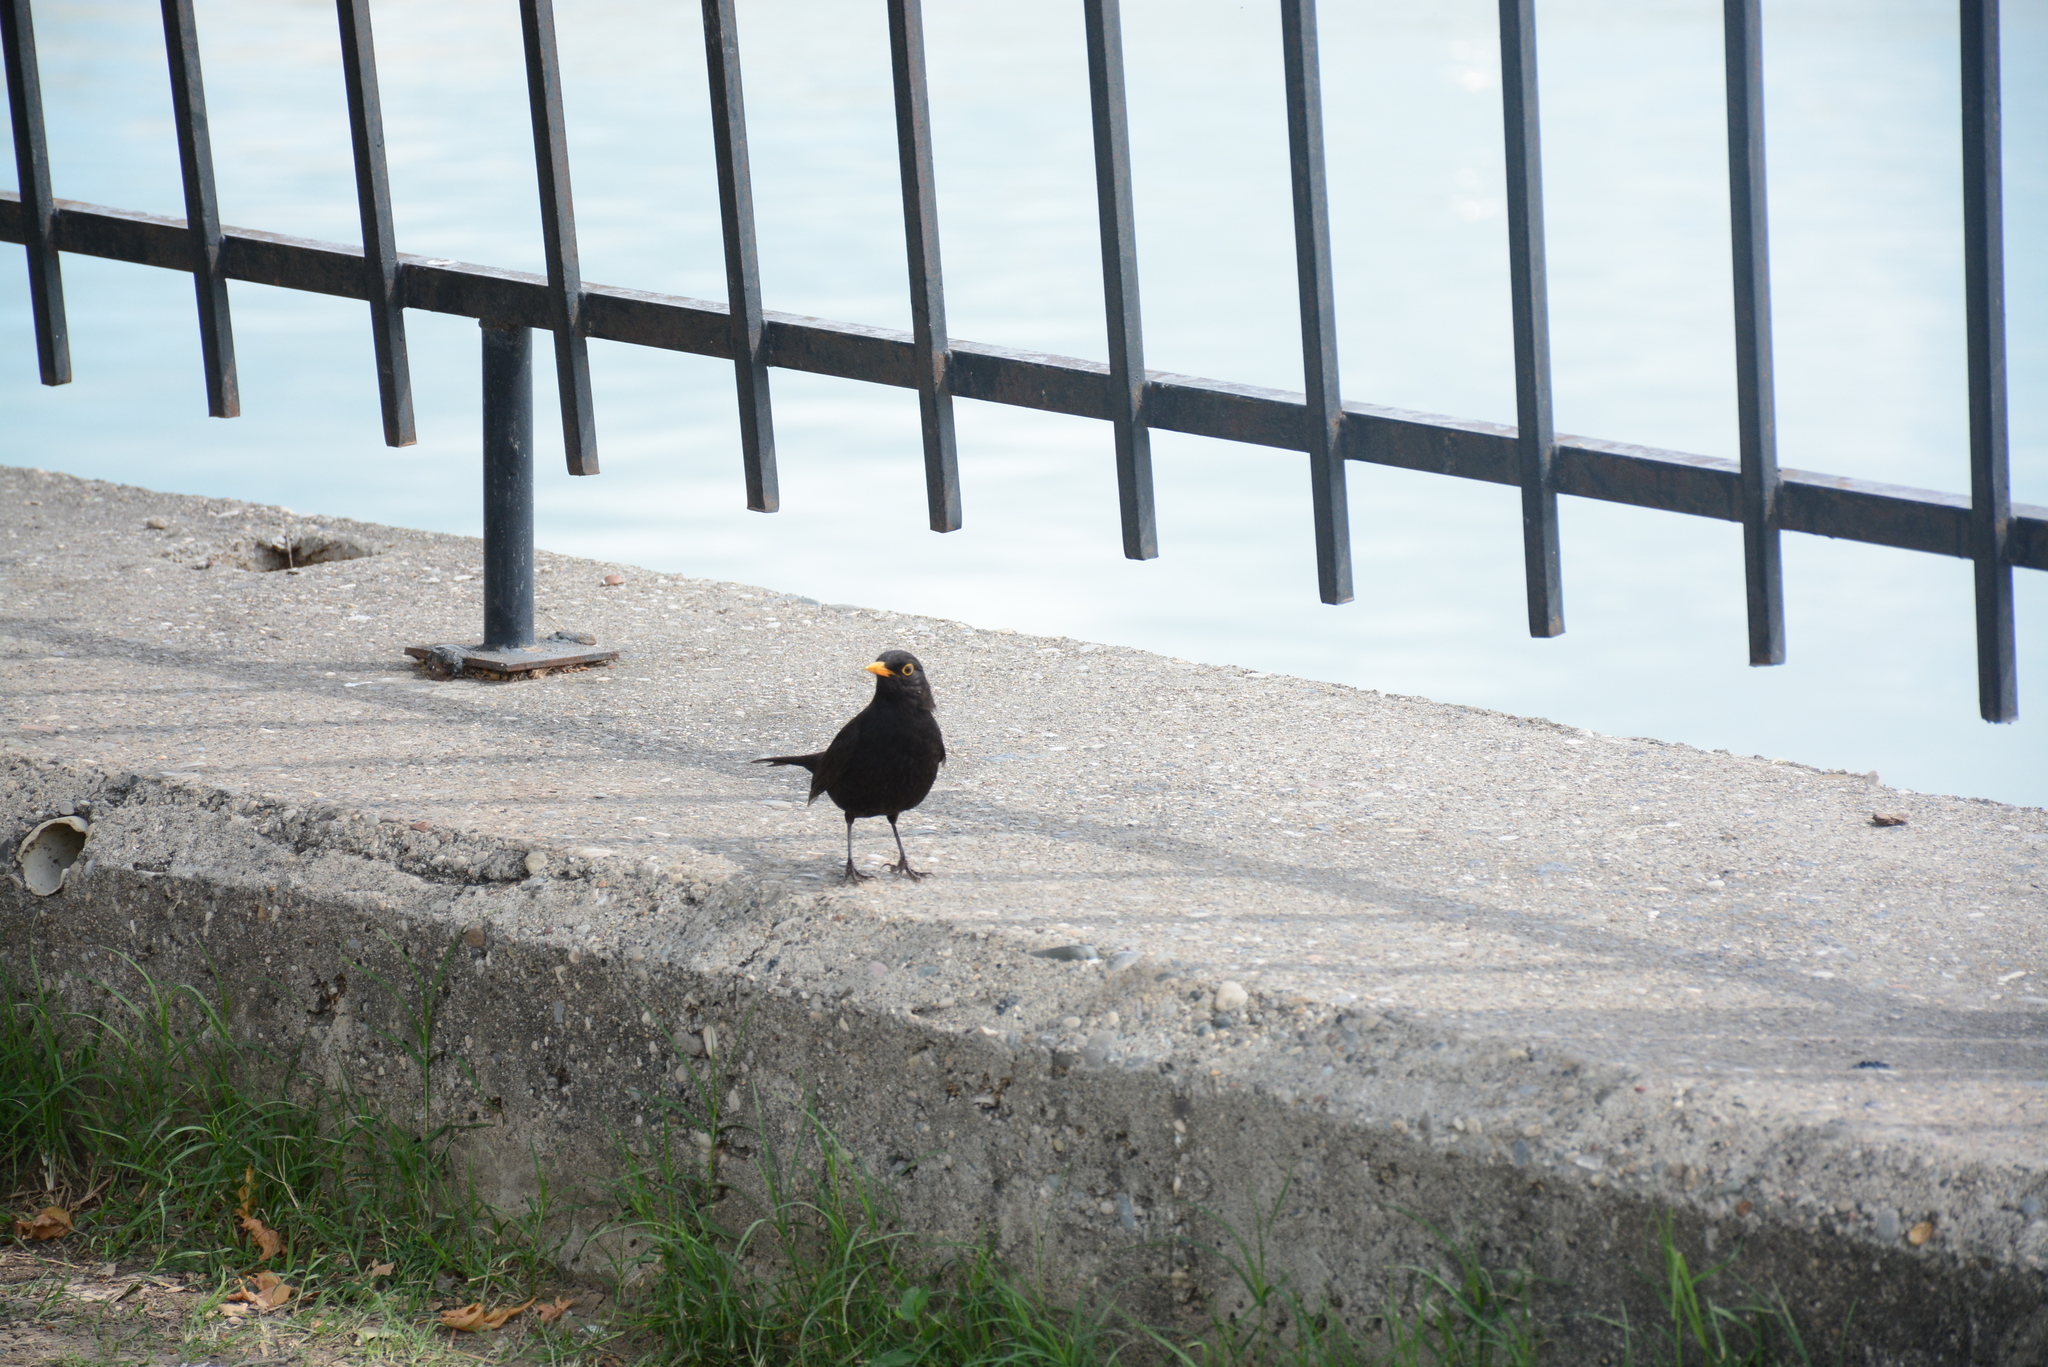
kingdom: Animalia
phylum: Chordata
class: Aves
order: Passeriformes
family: Turdidae
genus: Turdus
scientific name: Turdus merula
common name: Common blackbird
